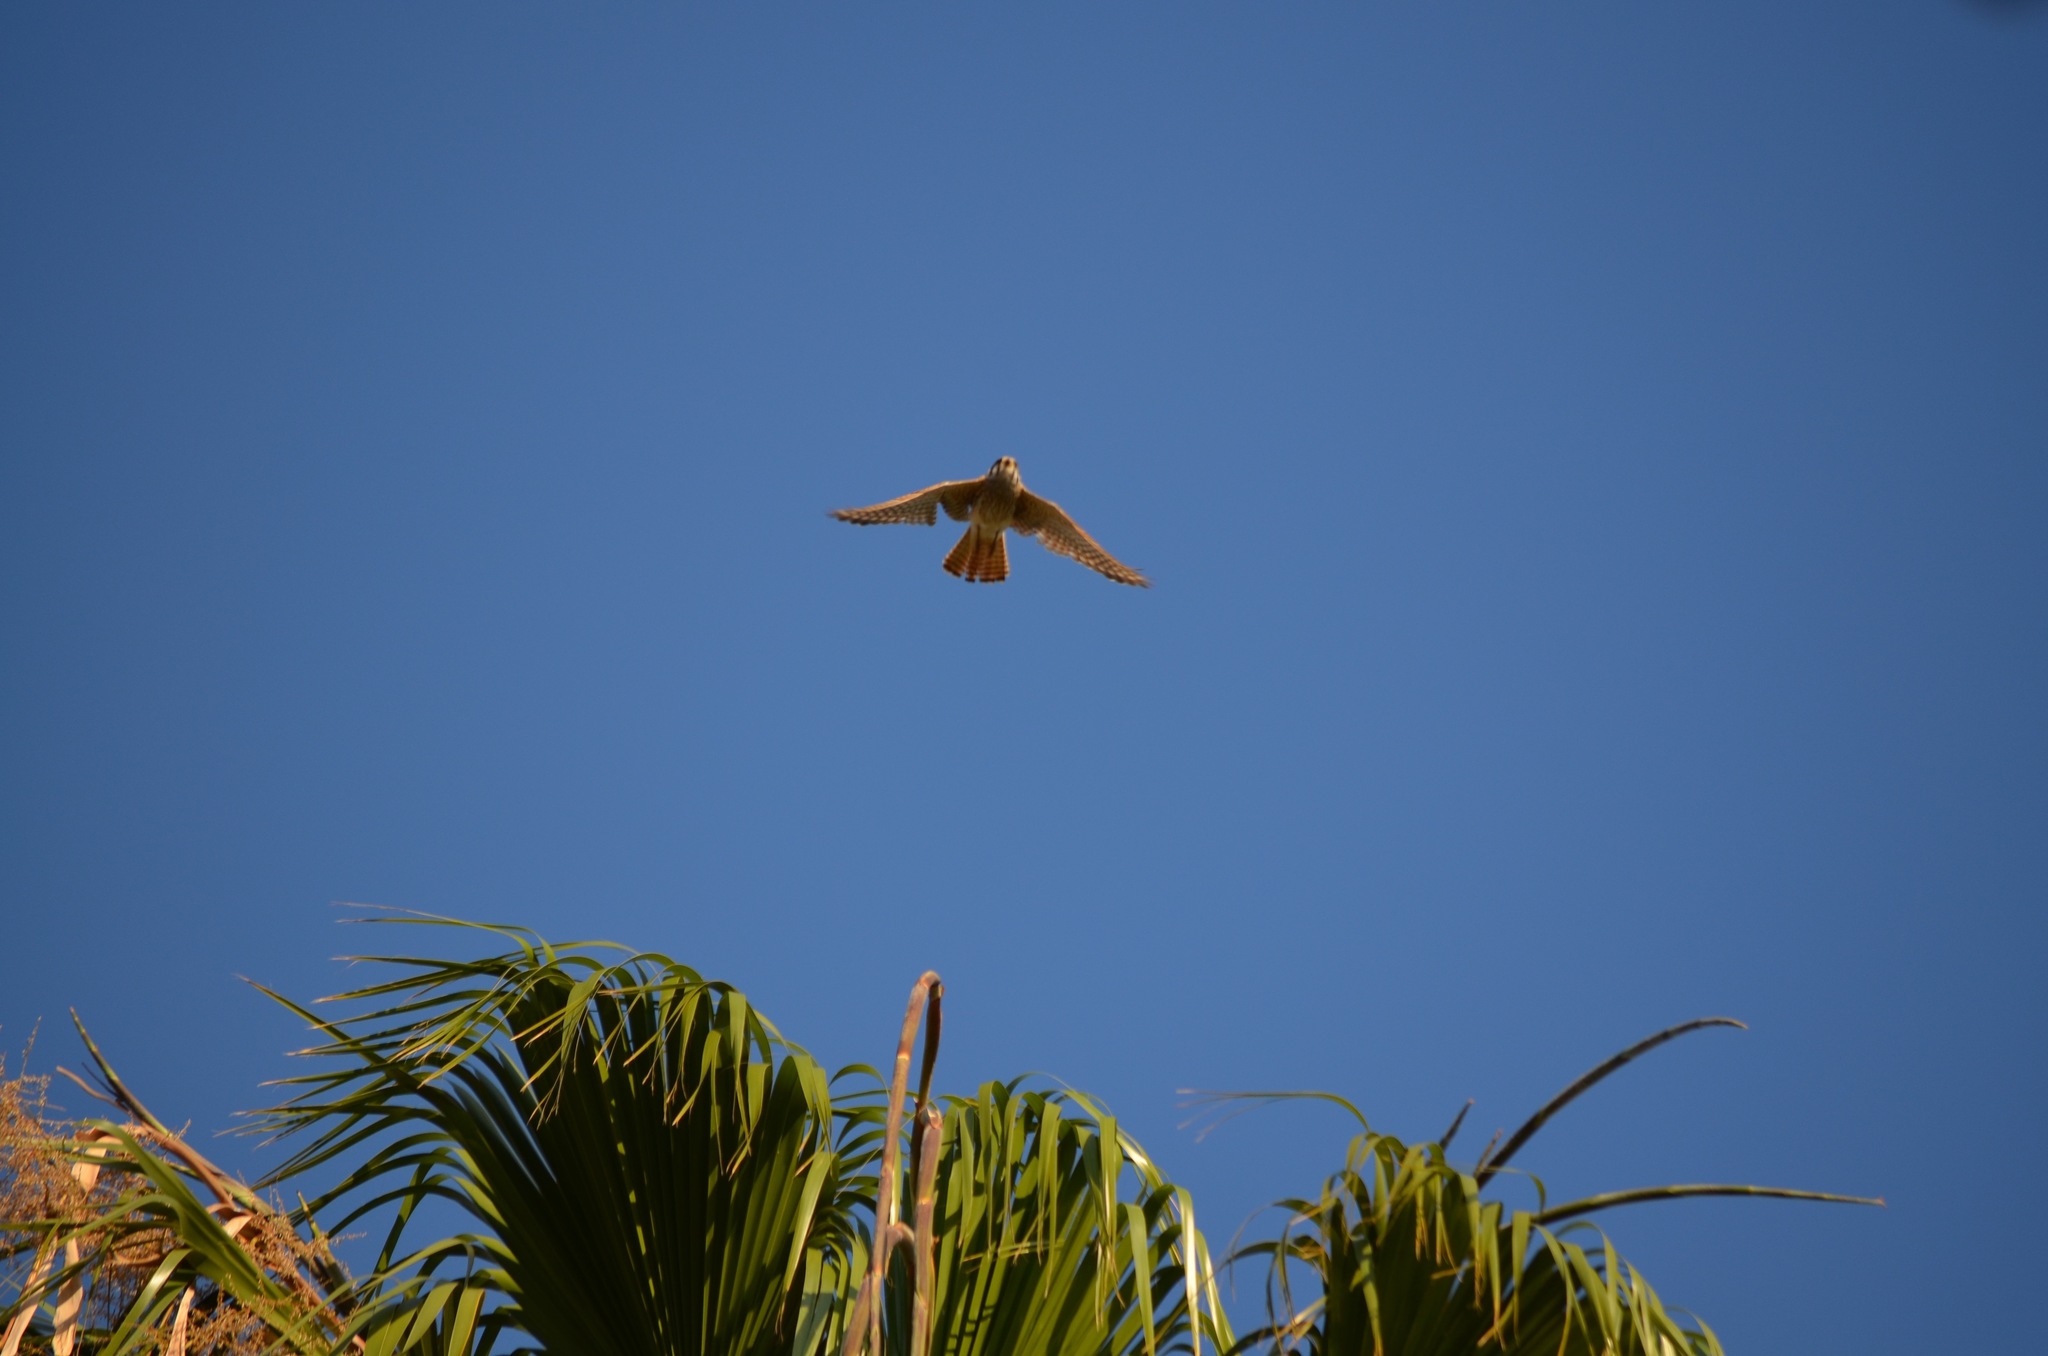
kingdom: Animalia
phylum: Chordata
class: Aves
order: Falconiformes
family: Falconidae
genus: Falco
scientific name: Falco sparverius
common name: American kestrel
